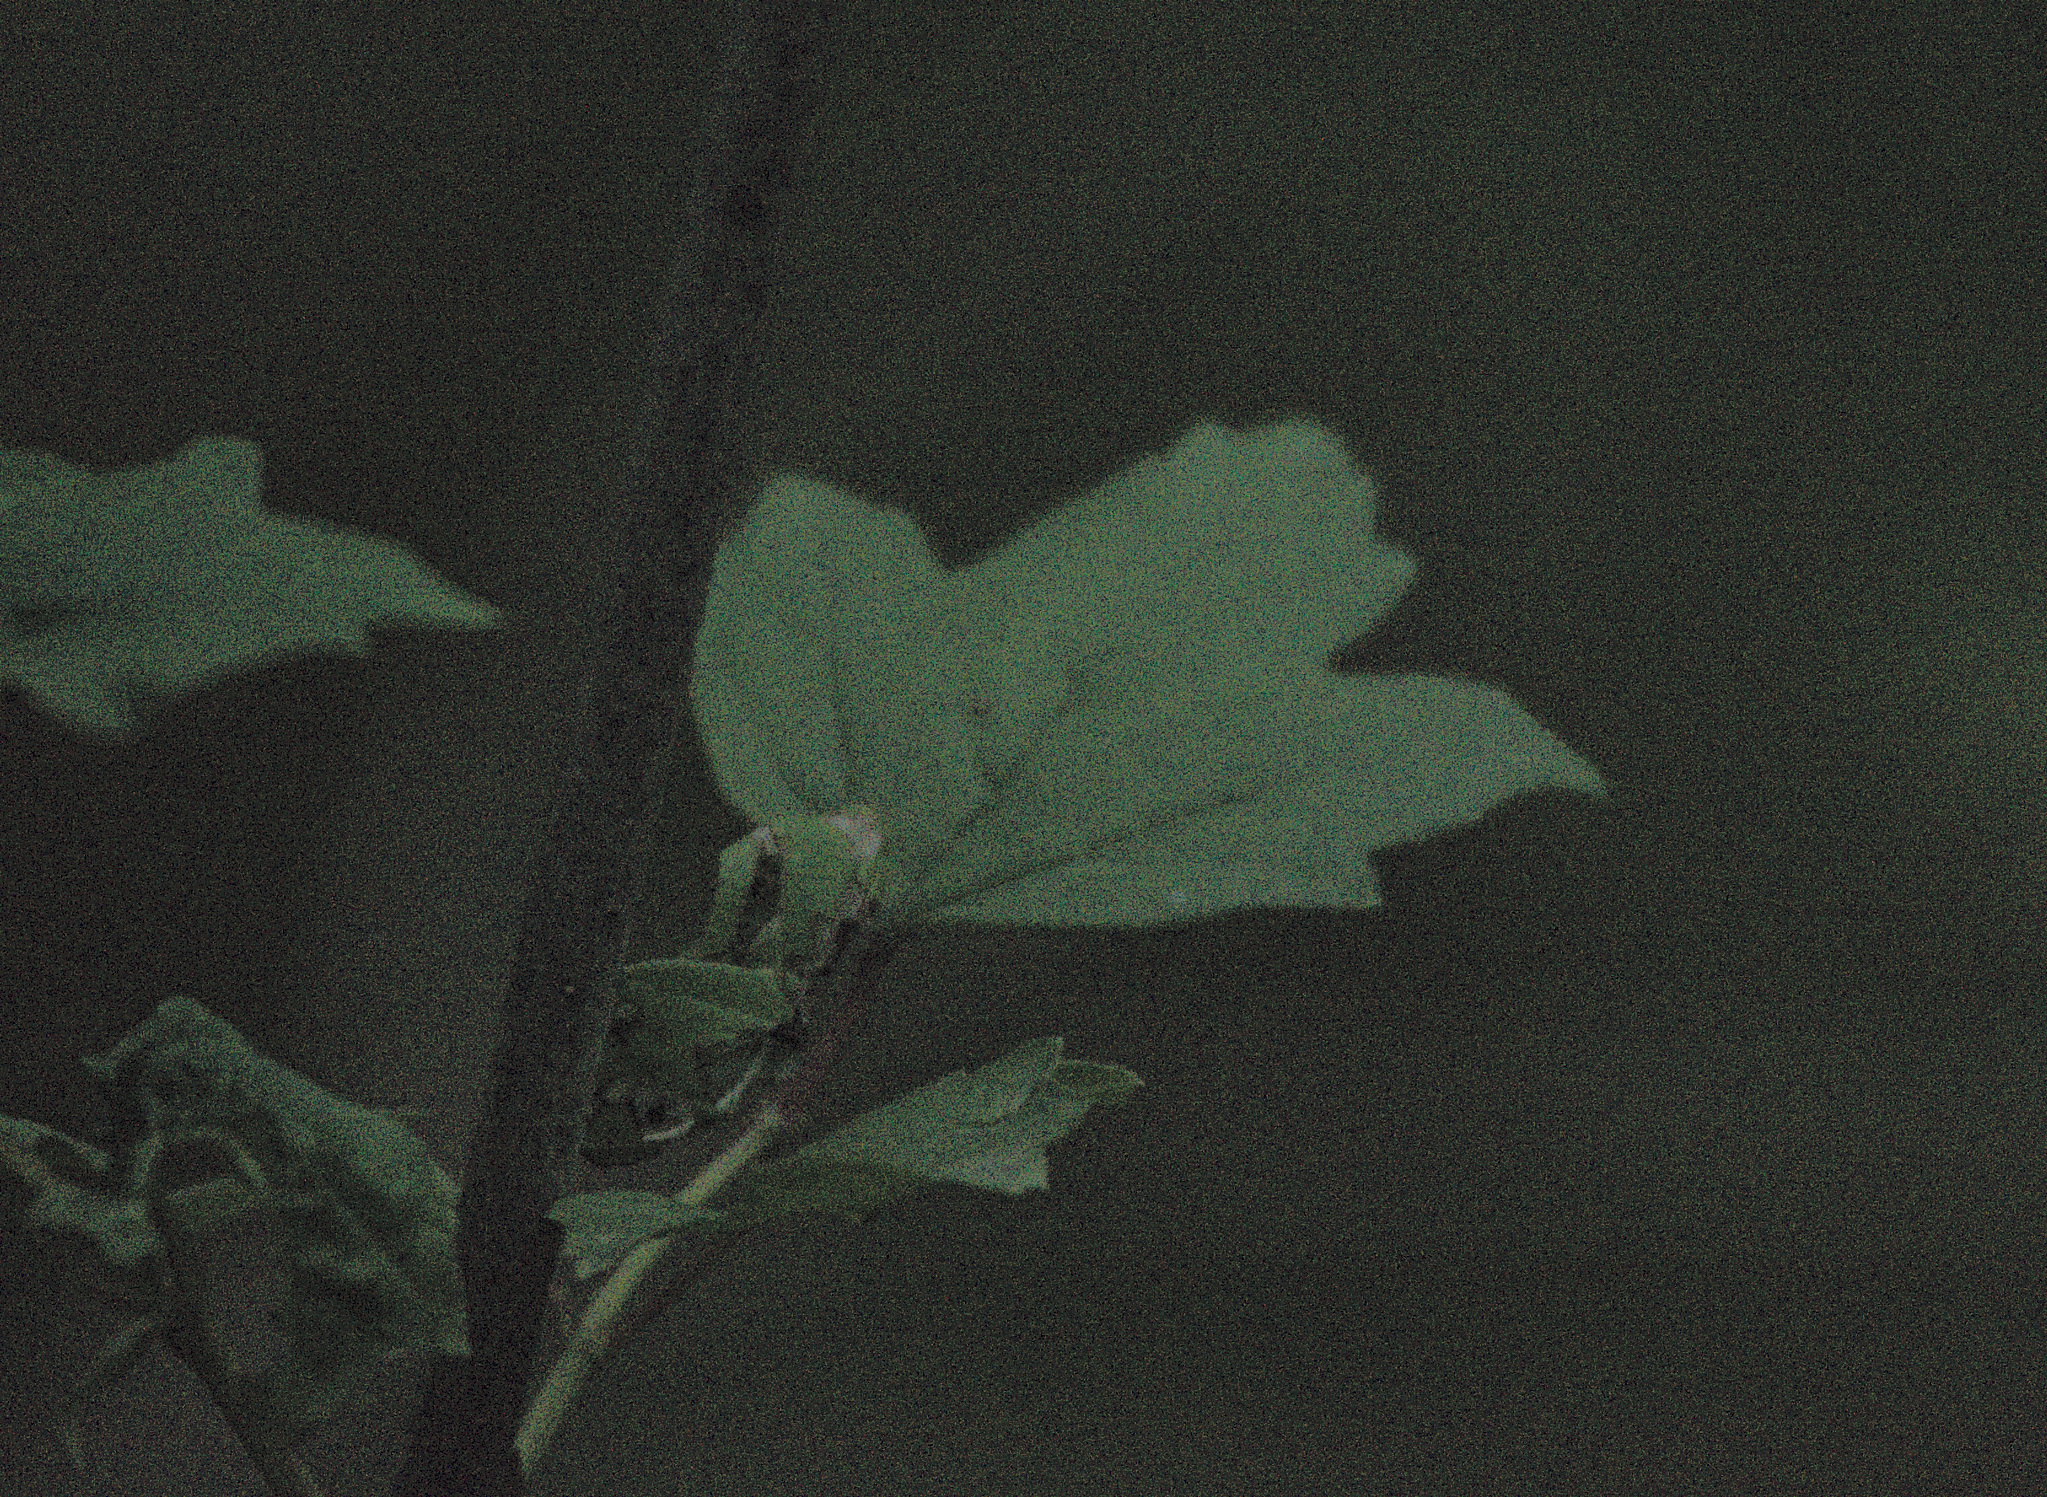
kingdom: Plantae
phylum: Tracheophyta
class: Magnoliopsida
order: Dipsacales
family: Viburnaceae
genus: Viburnum
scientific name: Viburnum opulus
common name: Guelder-rose
